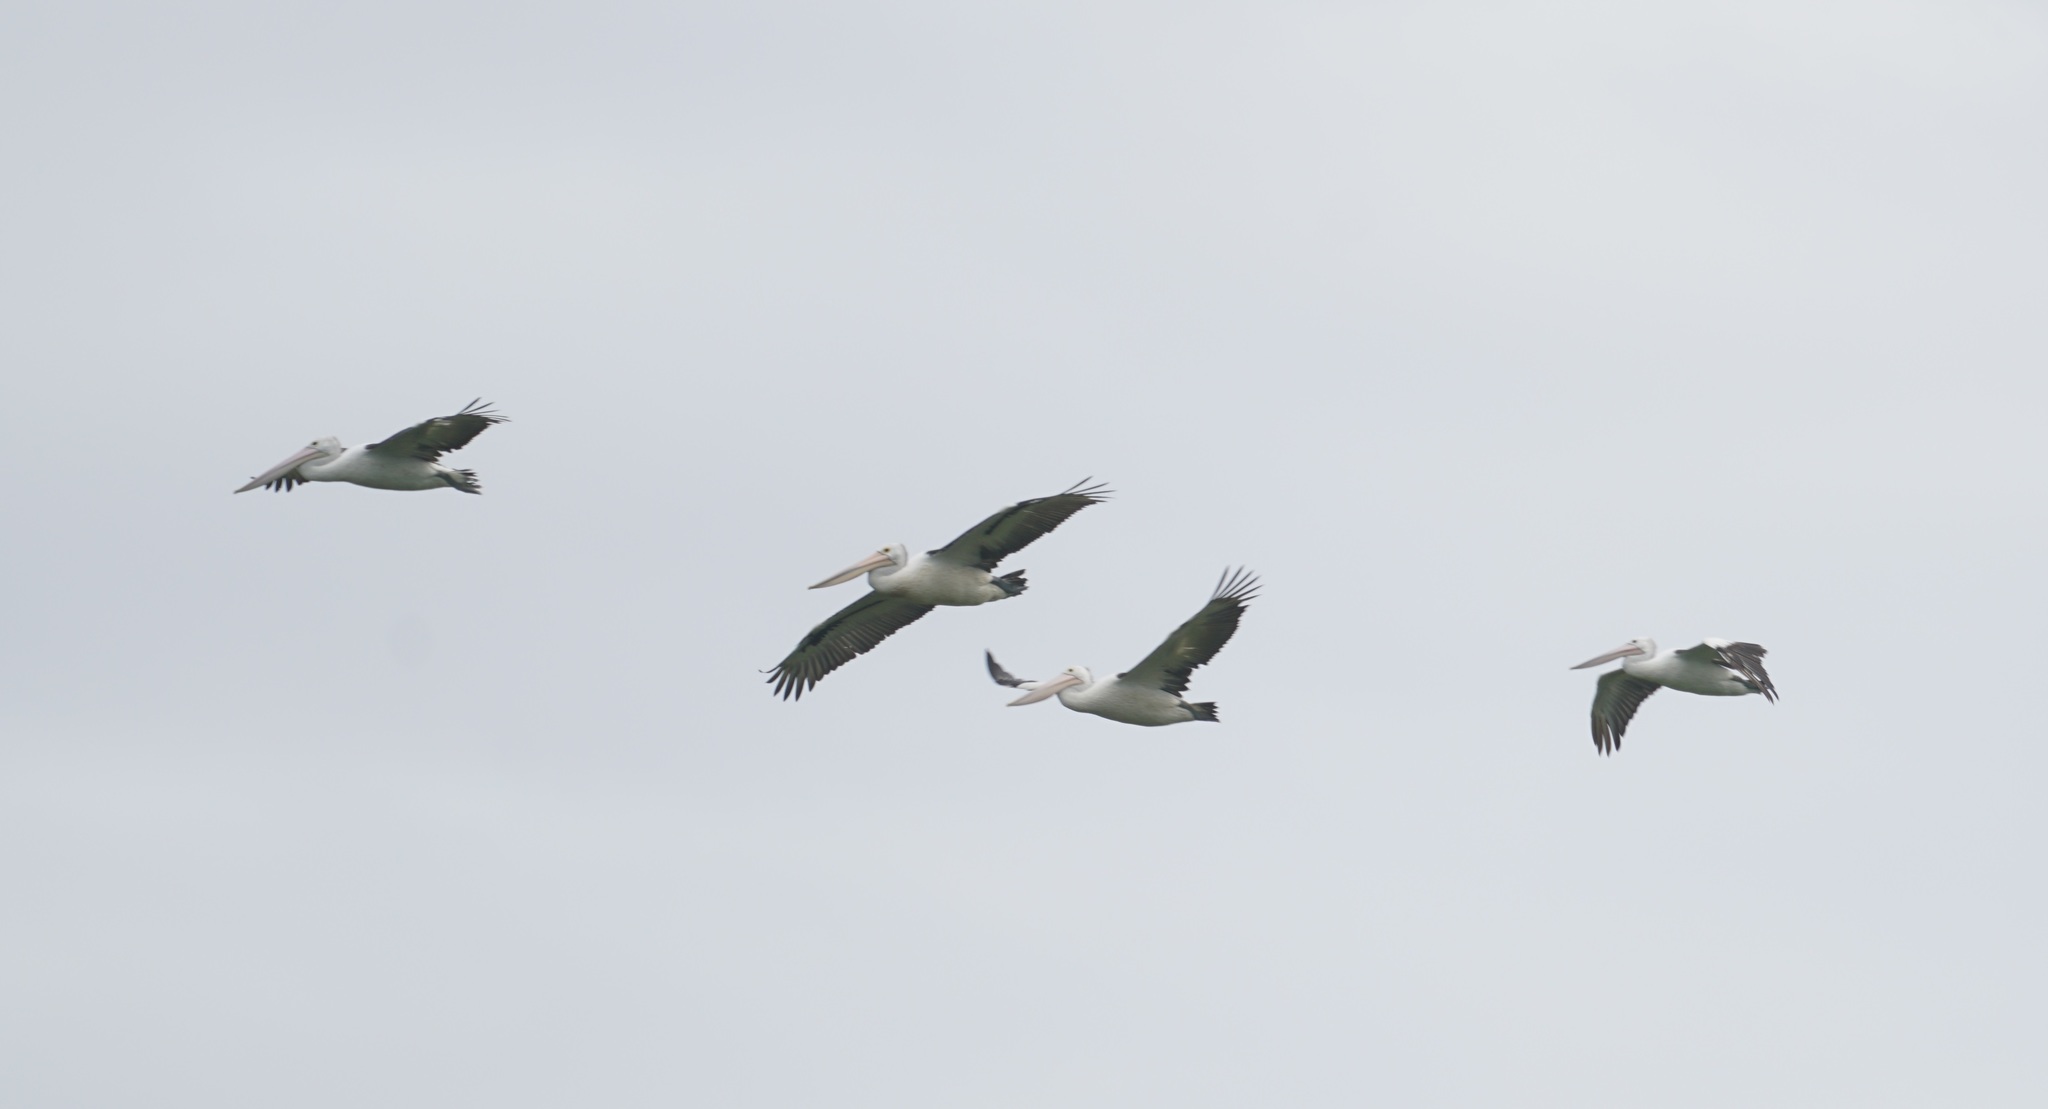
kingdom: Animalia
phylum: Chordata
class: Aves
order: Pelecaniformes
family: Pelecanidae
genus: Pelecanus
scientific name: Pelecanus conspicillatus
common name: Australian pelican
